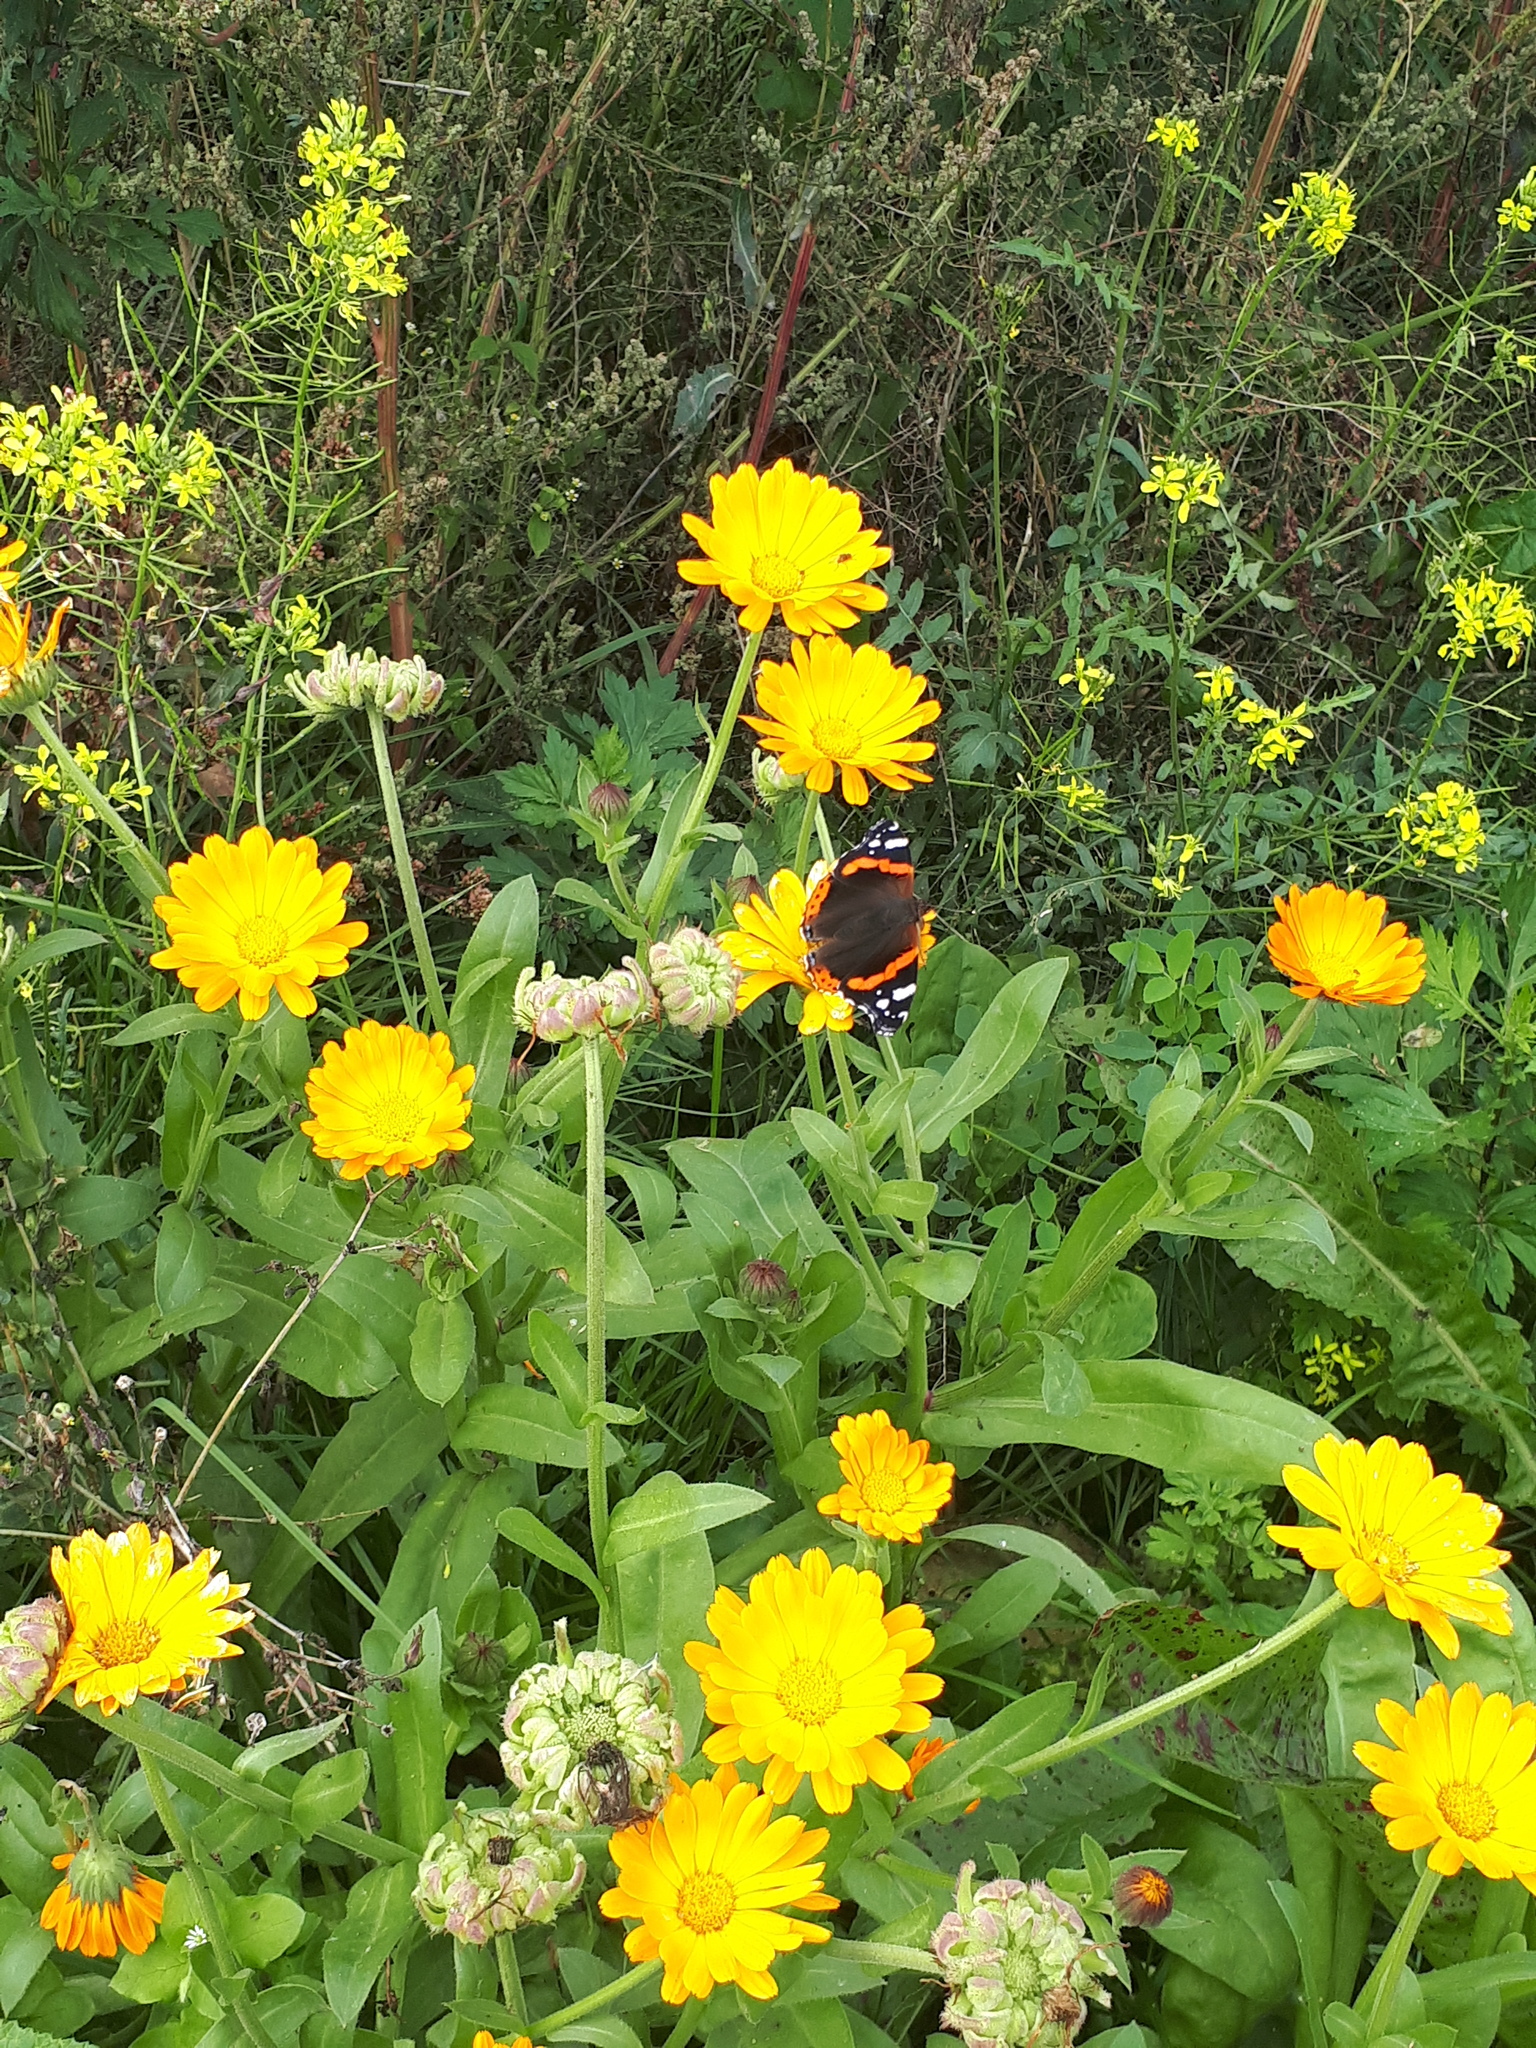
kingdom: Animalia
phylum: Arthropoda
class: Insecta
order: Lepidoptera
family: Nymphalidae
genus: Vanessa
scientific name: Vanessa atalanta
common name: Red admiral
